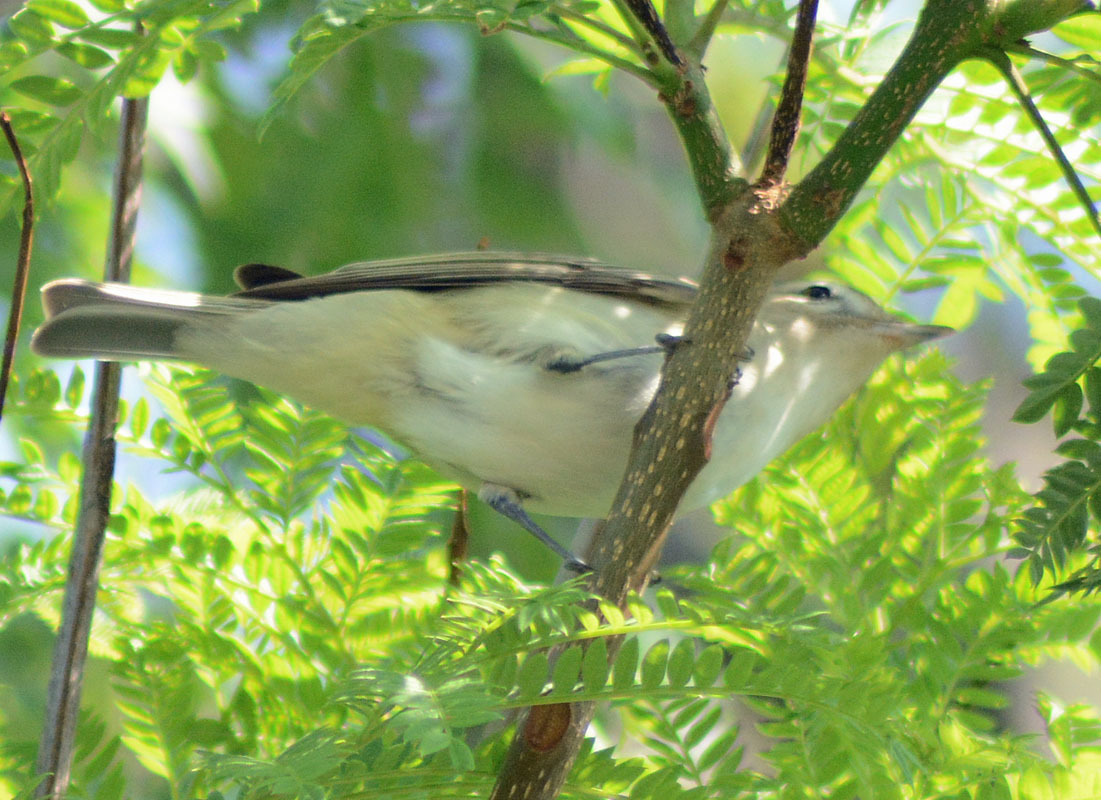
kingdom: Animalia
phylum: Chordata
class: Aves
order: Passeriformes
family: Vireonidae
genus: Vireo
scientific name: Vireo gilvus
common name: Warbling vireo
